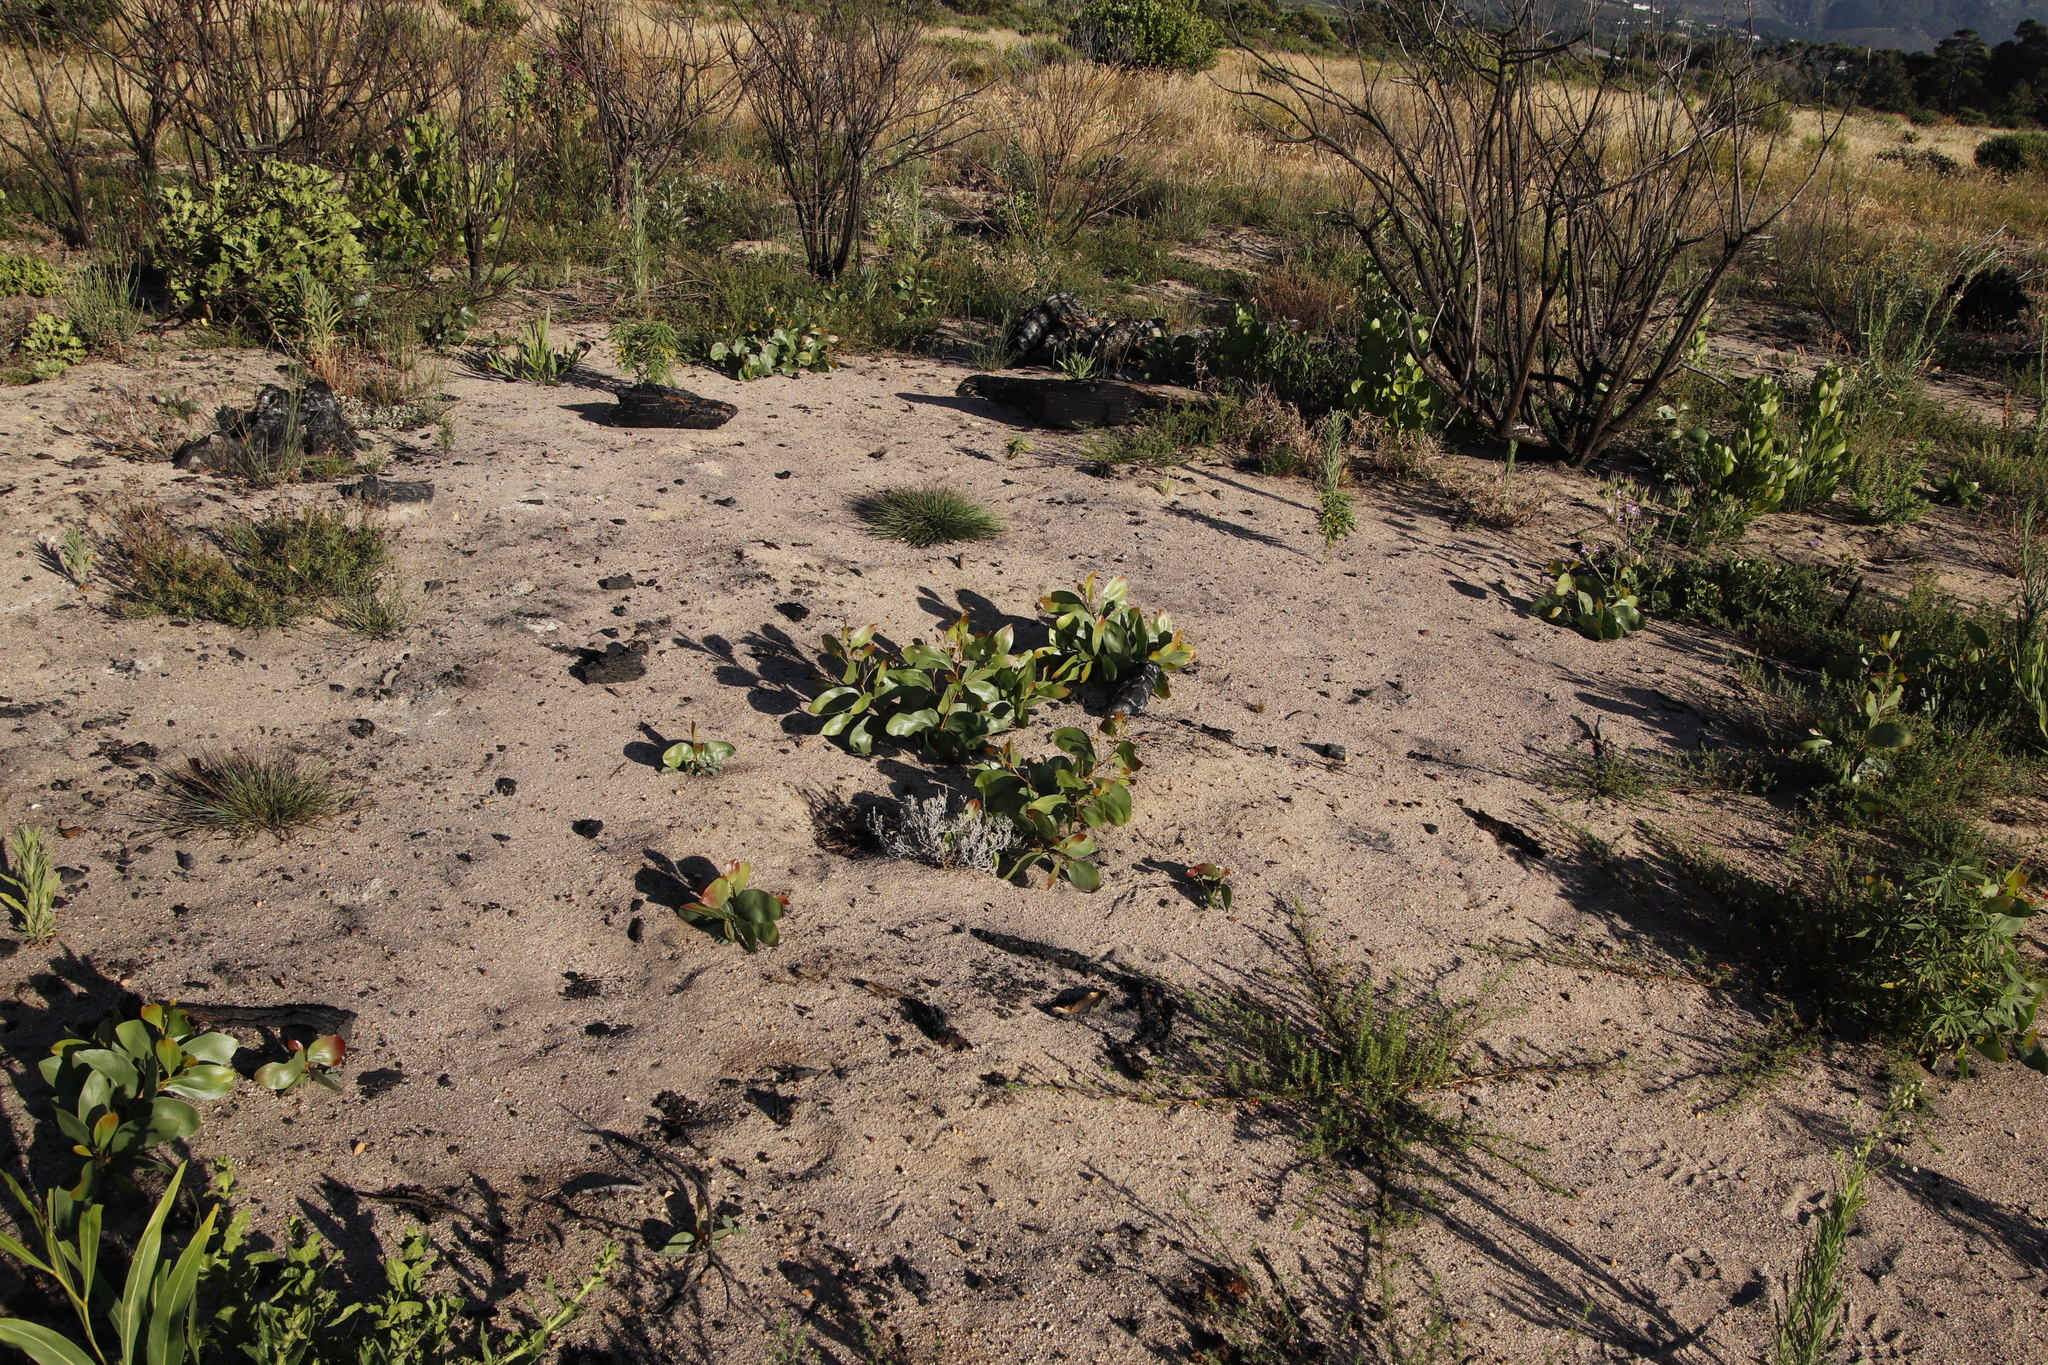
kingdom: Plantae
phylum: Tracheophyta
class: Magnoliopsida
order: Fabales
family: Fabaceae
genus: Acacia
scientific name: Acacia pycnantha
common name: Golden wattle
